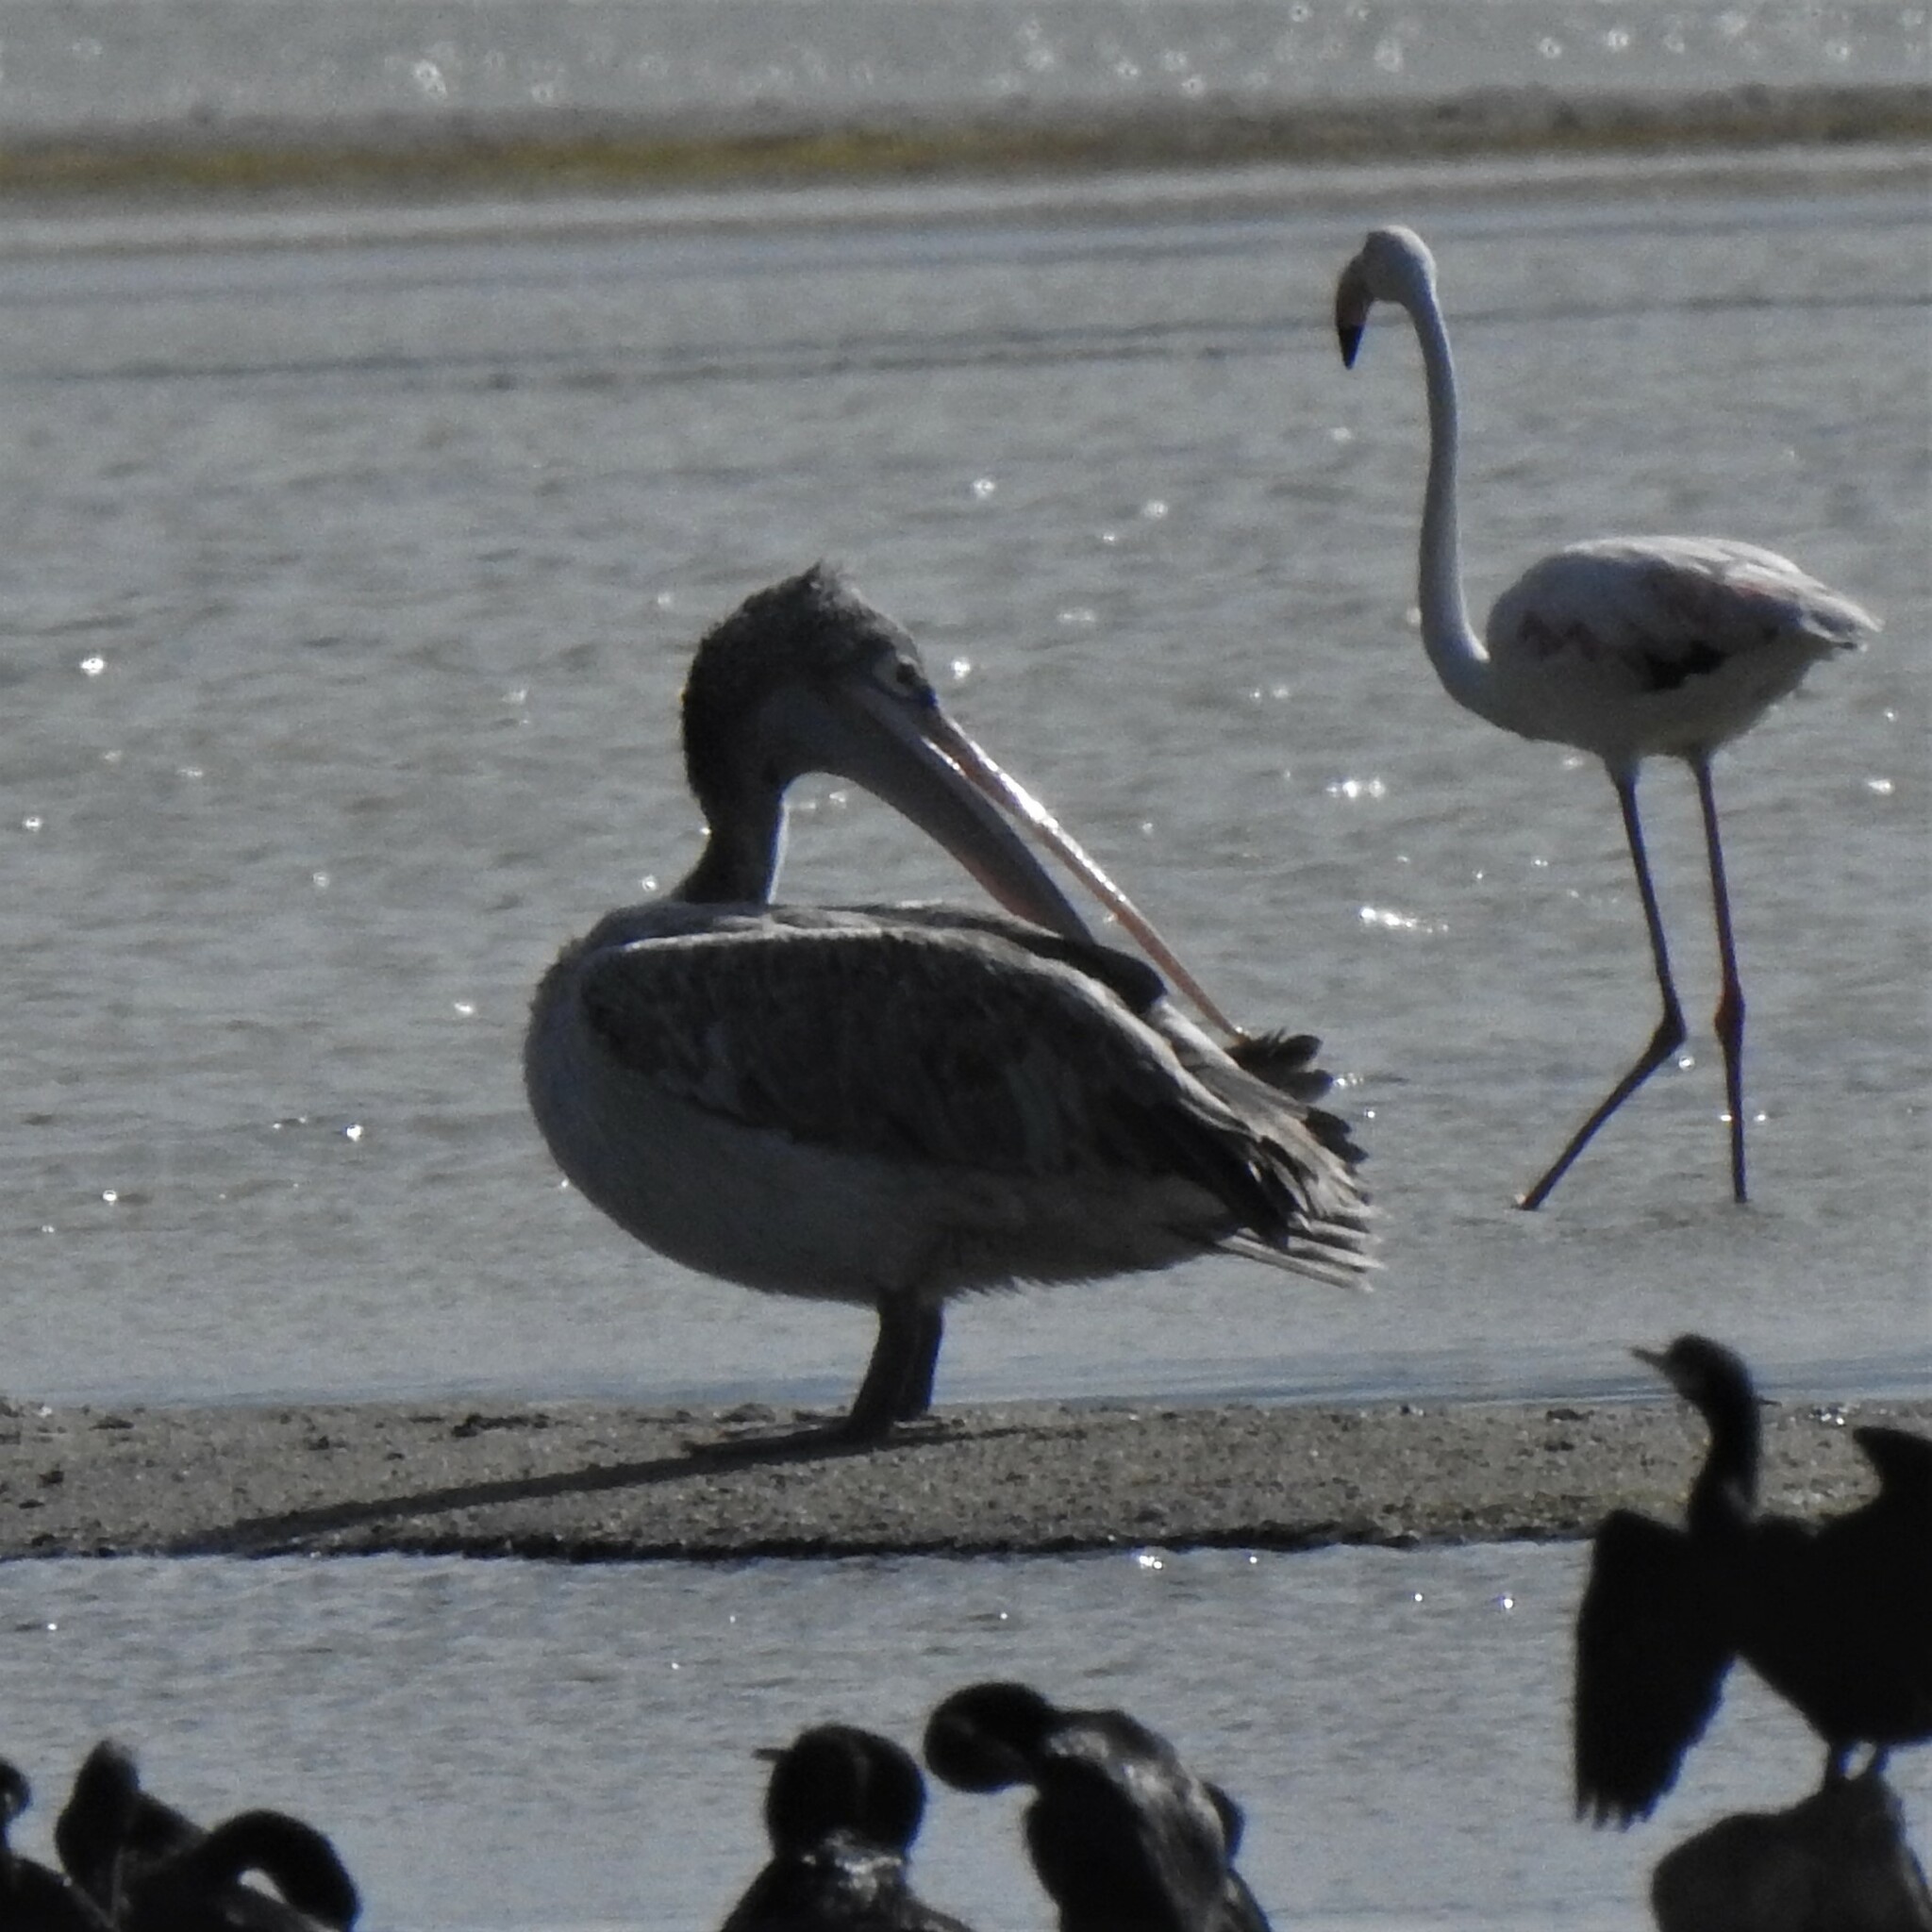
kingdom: Animalia
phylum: Chordata
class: Aves
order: Pelecaniformes
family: Pelecanidae
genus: Pelecanus
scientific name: Pelecanus philippensis
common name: Spot-billed pelican
